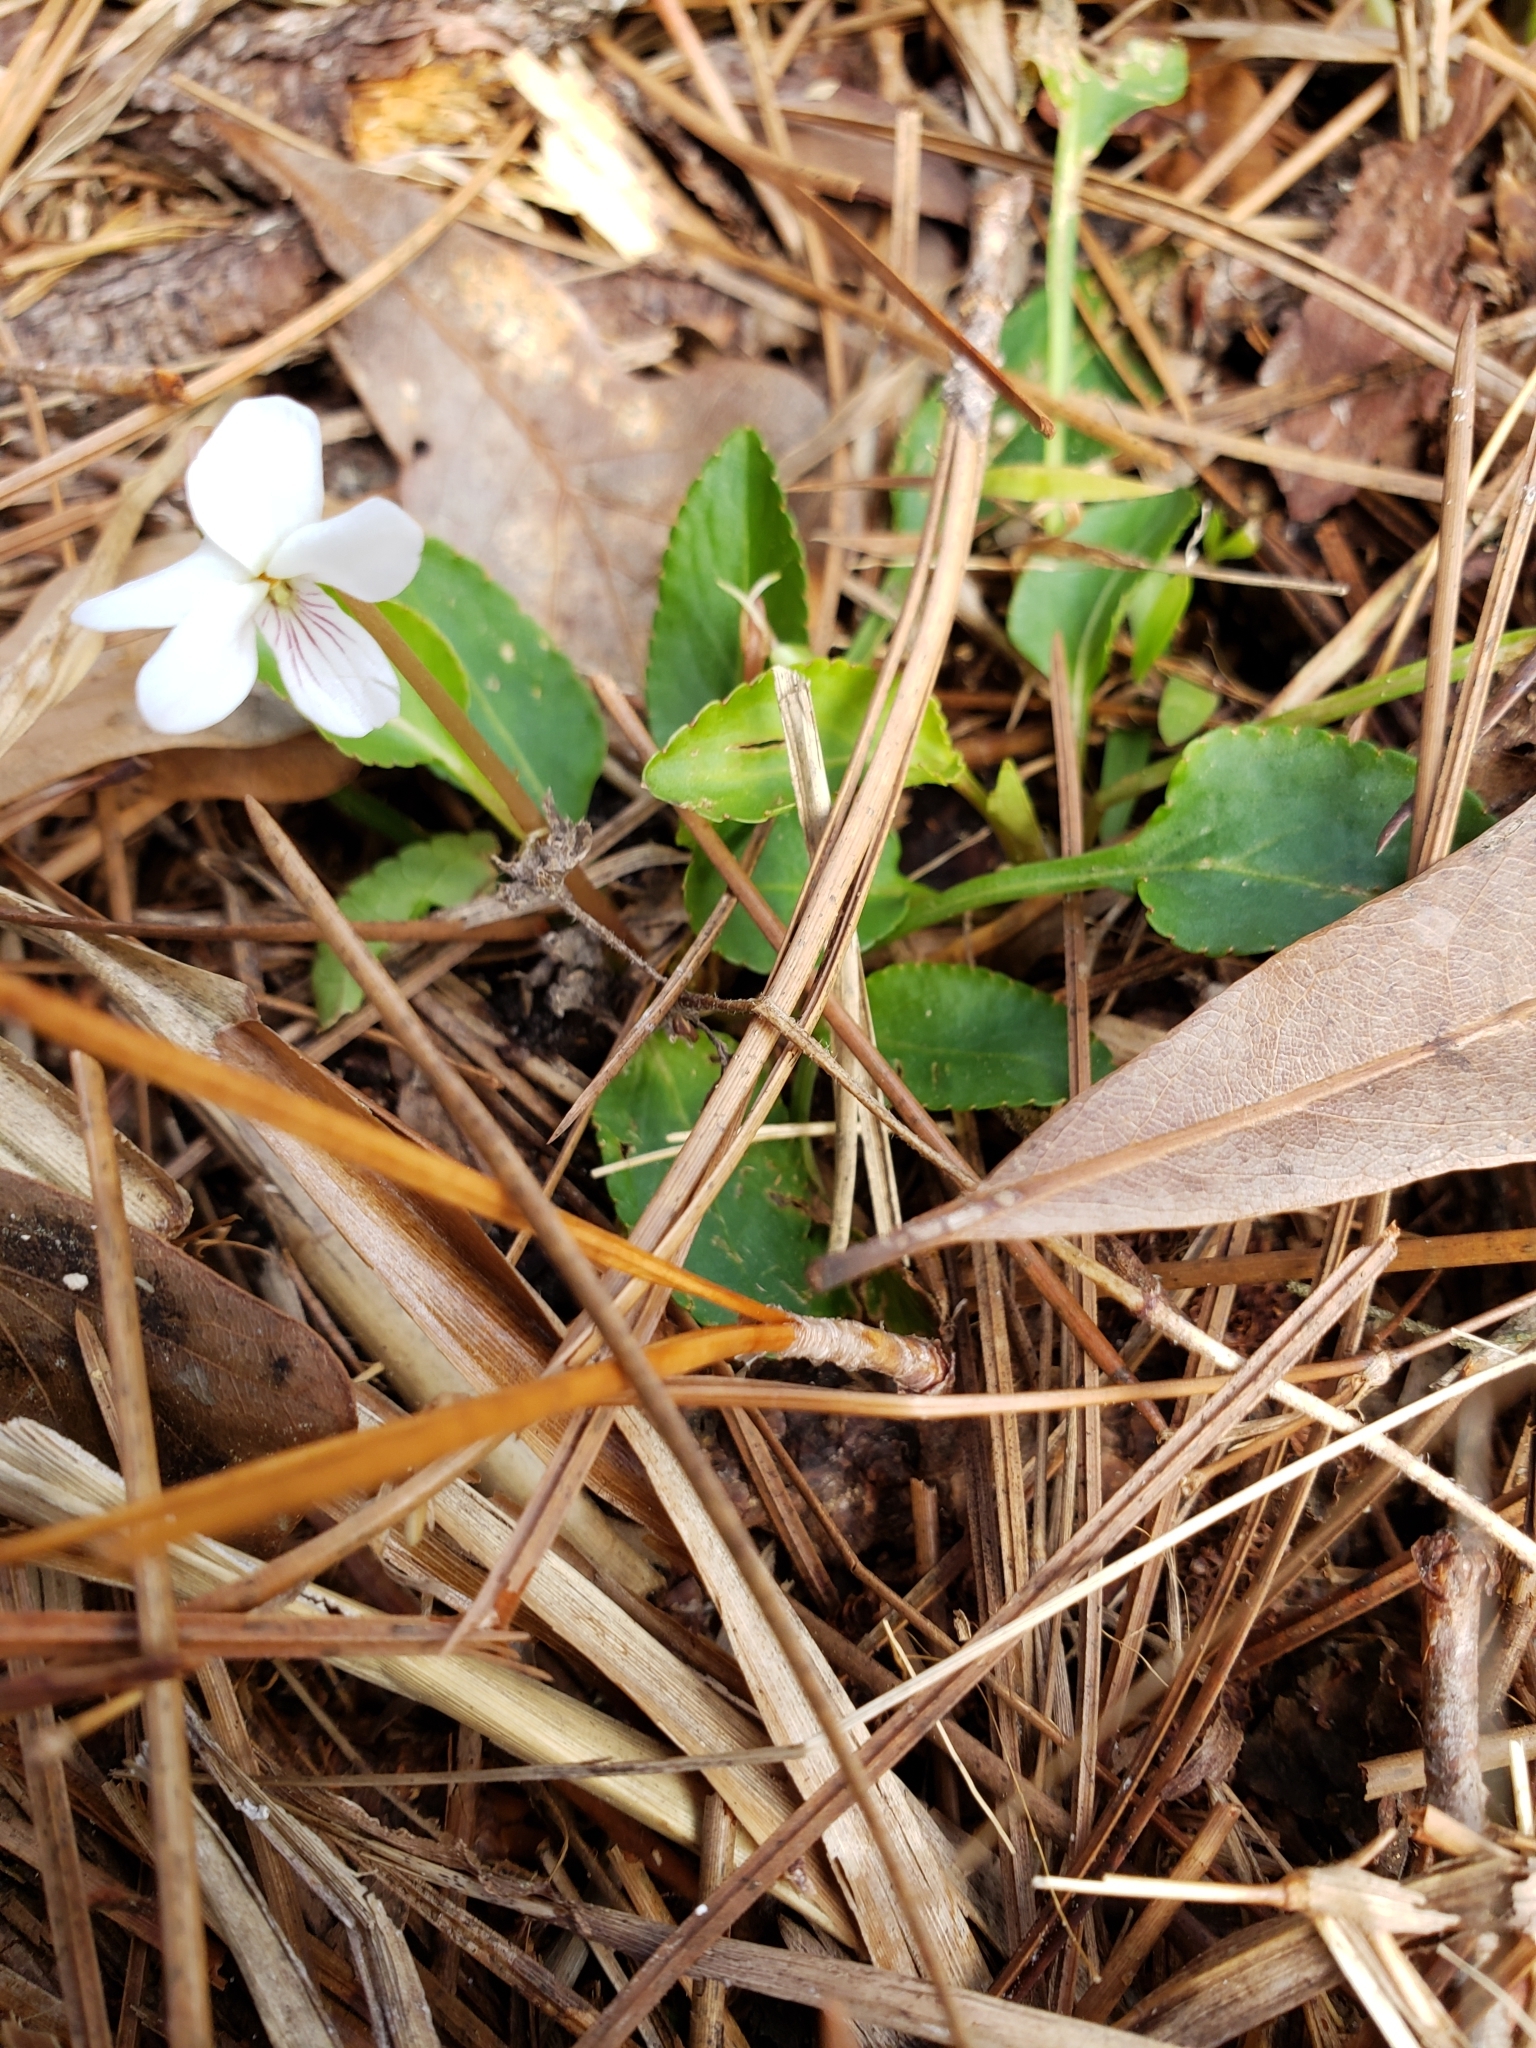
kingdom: Plantae
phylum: Tracheophyta
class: Magnoliopsida
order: Malpighiales
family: Violaceae
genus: Viola
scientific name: Viola primulifolia
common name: Primrose-leaf violet
